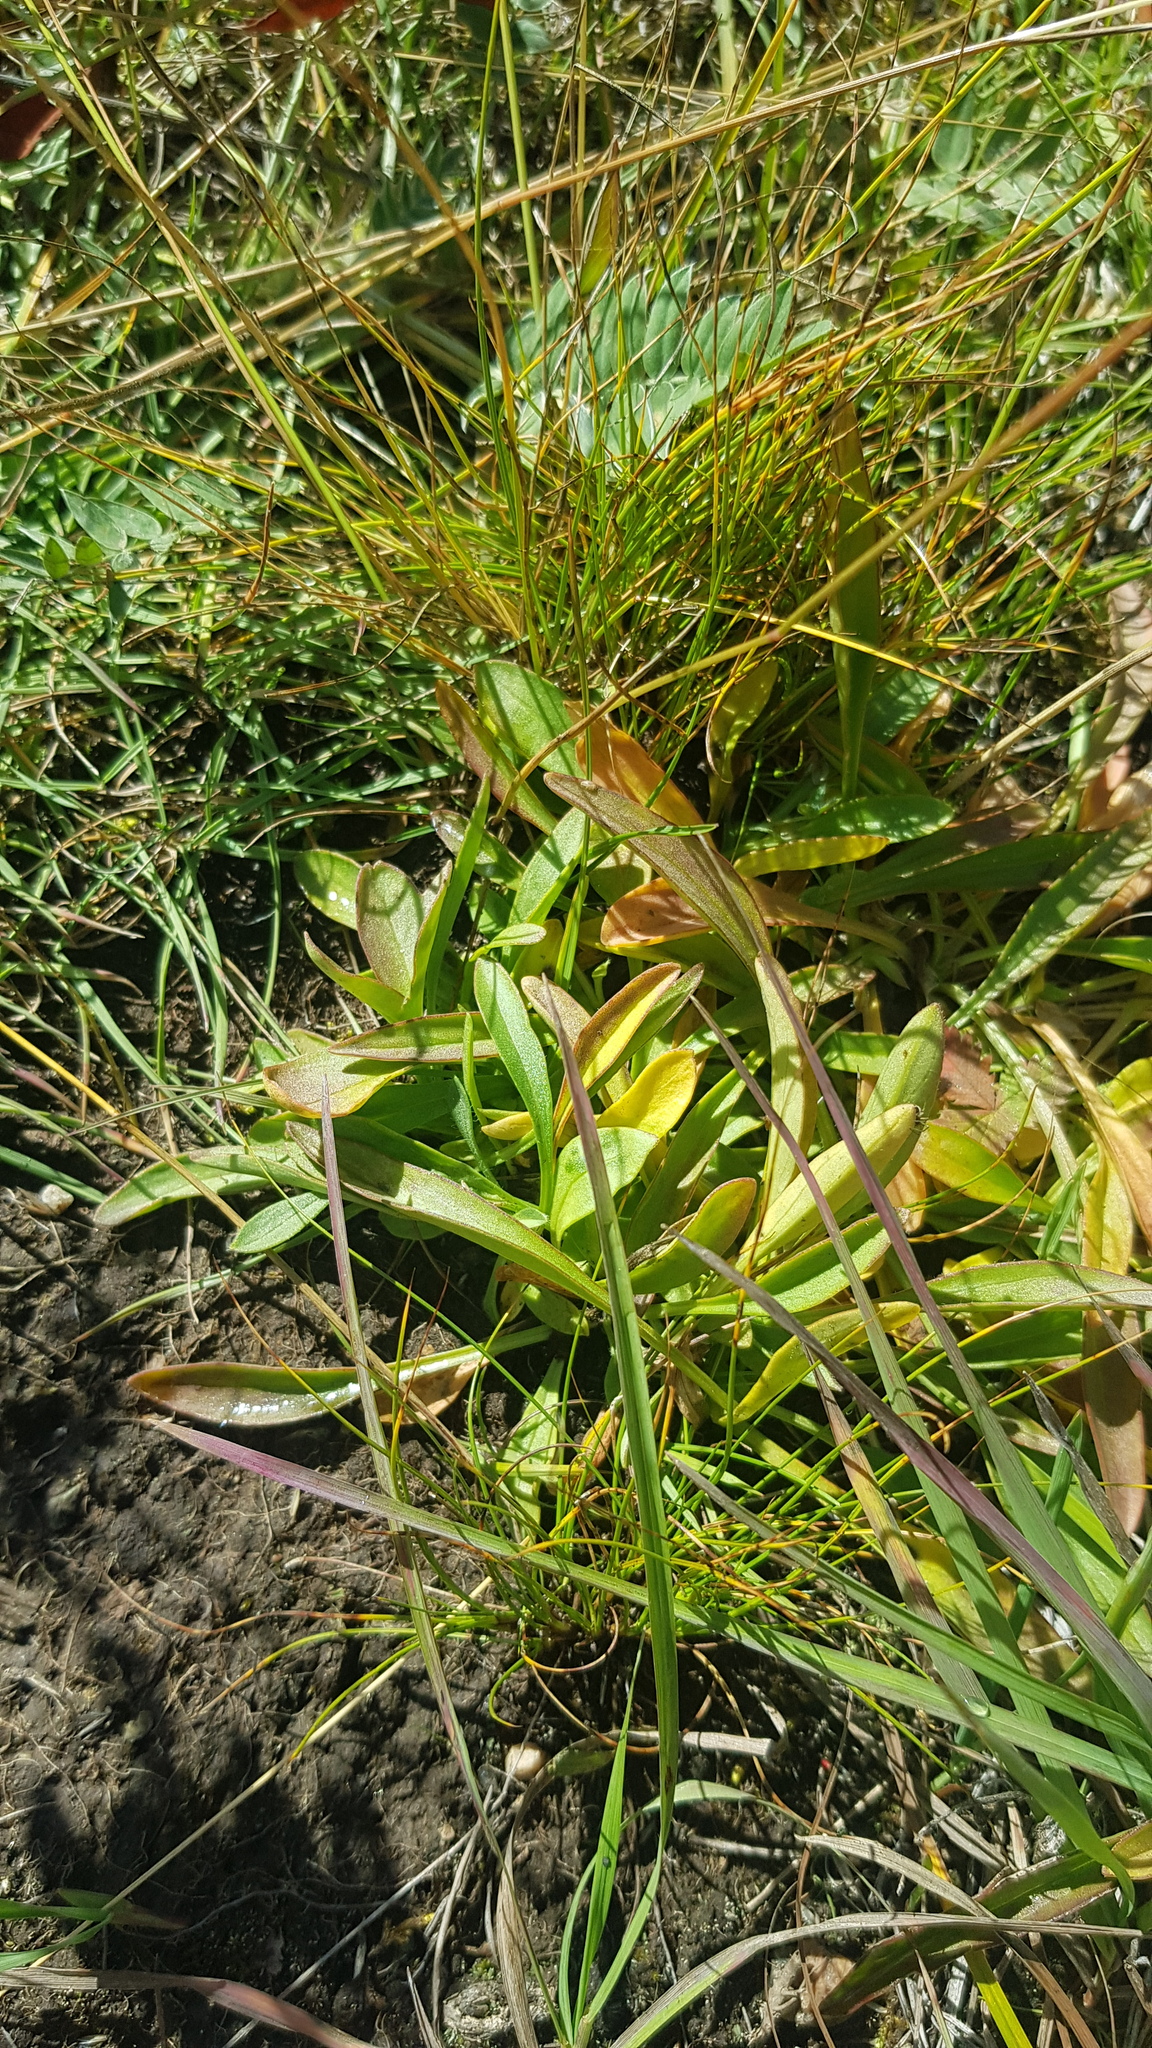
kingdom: Plantae
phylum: Tracheophyta
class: Magnoliopsida
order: Dipsacales
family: Caprifoliaceae
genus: Patrinia
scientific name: Patrinia sibirica
